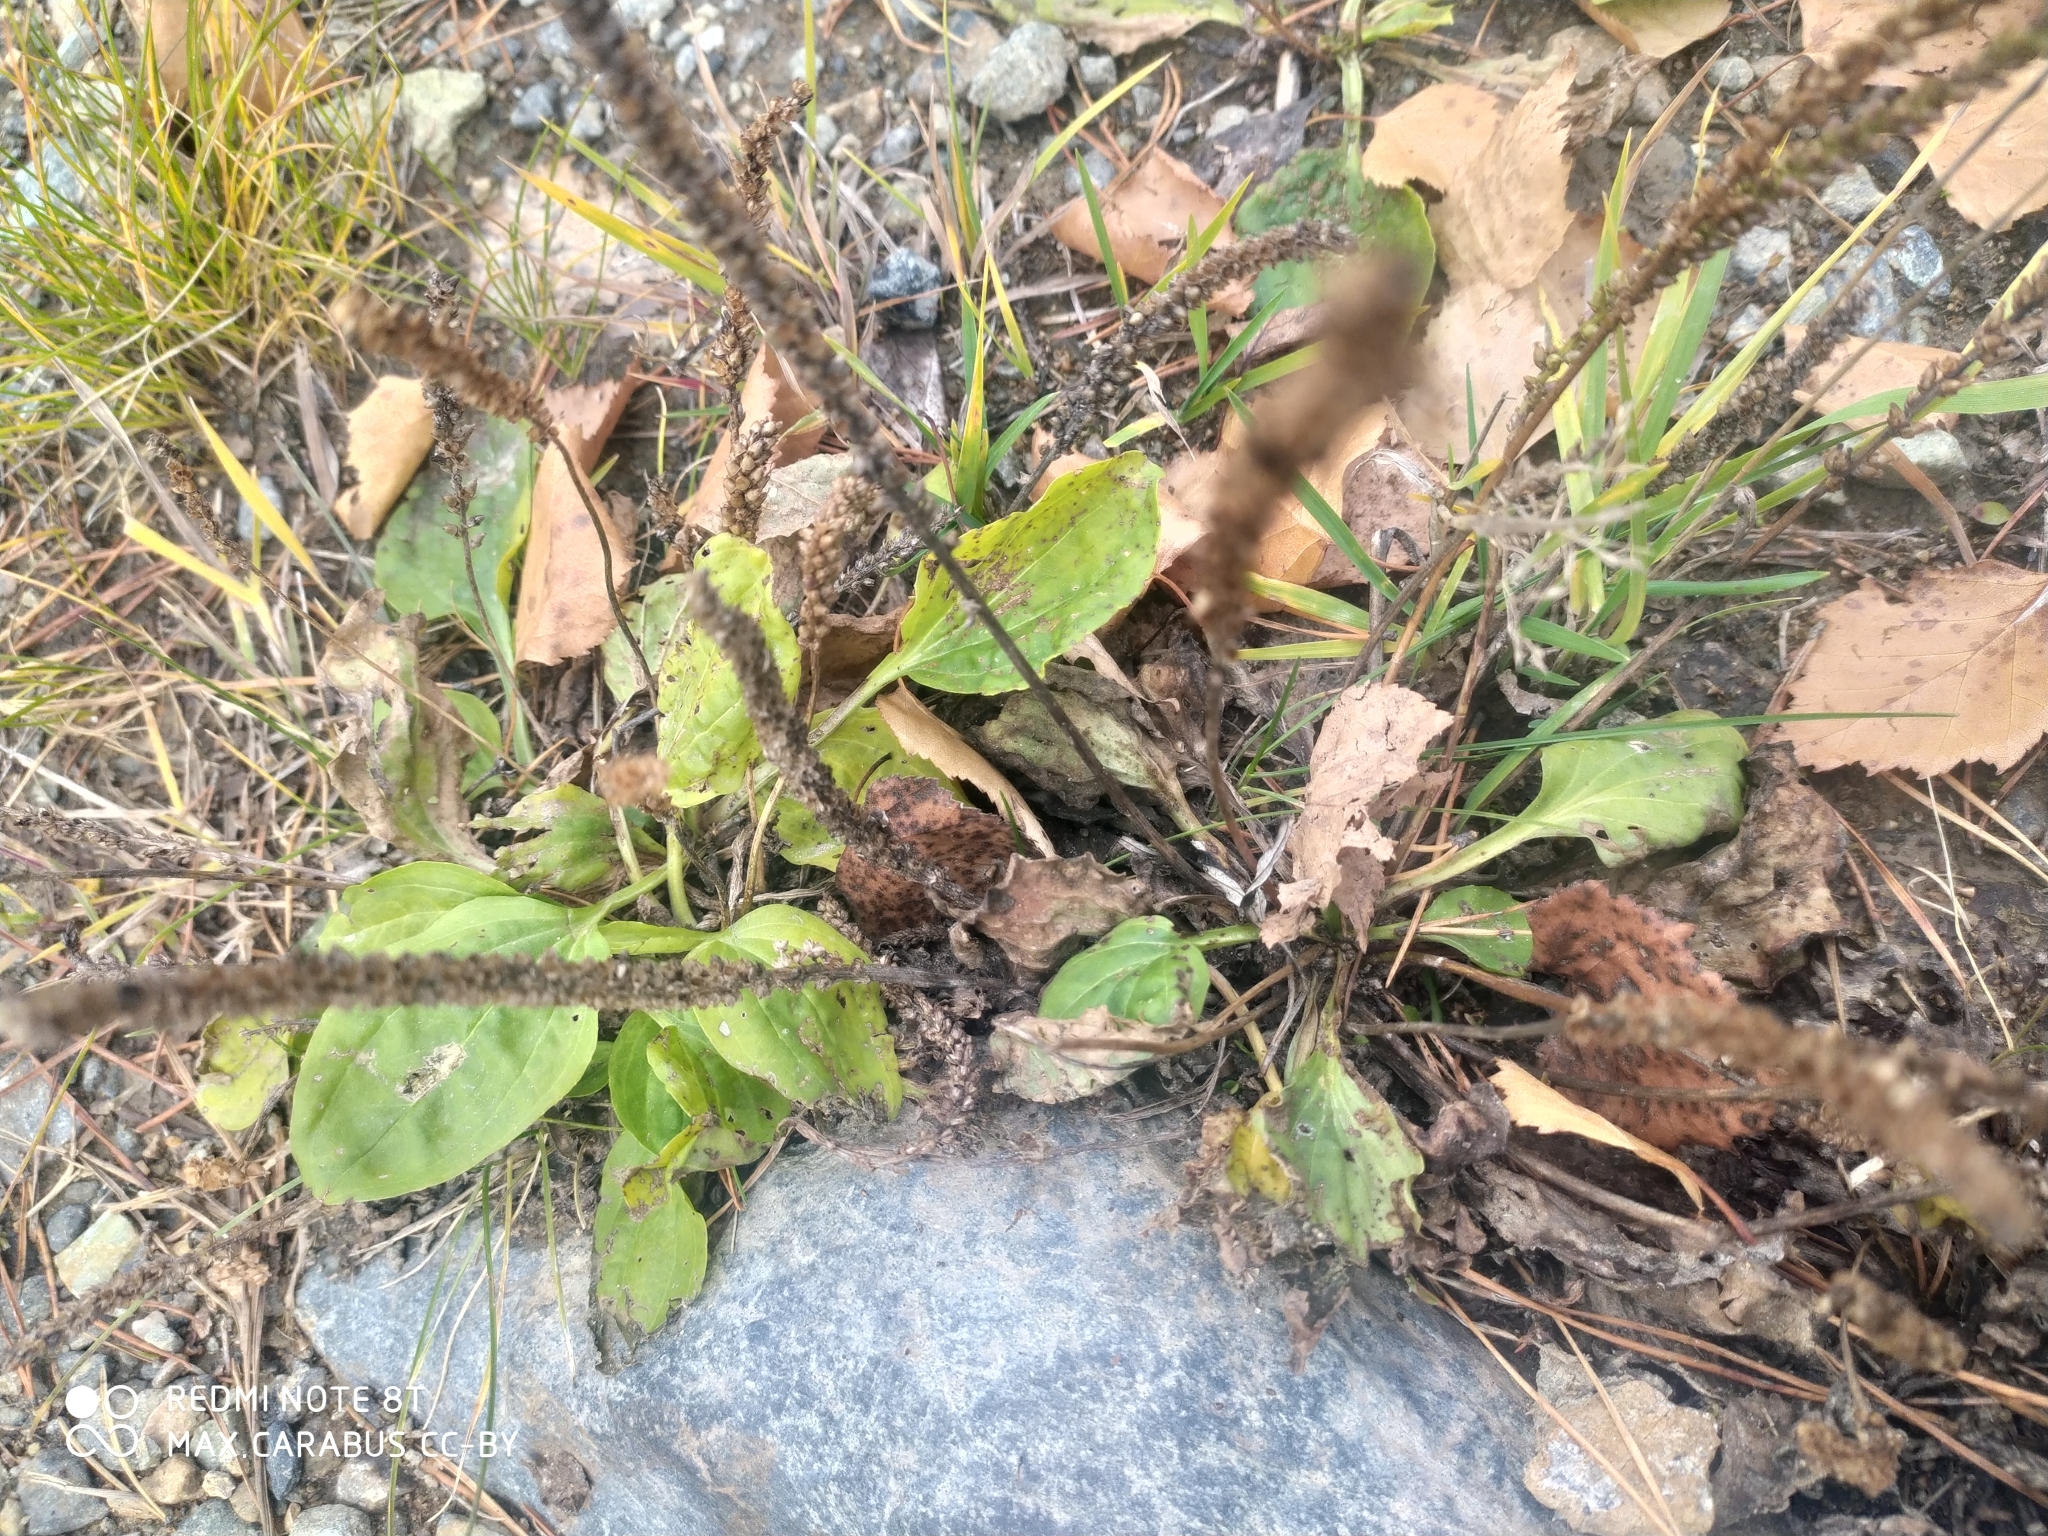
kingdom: Plantae
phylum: Tracheophyta
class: Magnoliopsida
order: Lamiales
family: Plantaginaceae
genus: Plantago
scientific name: Plantago major
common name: Common plantain
